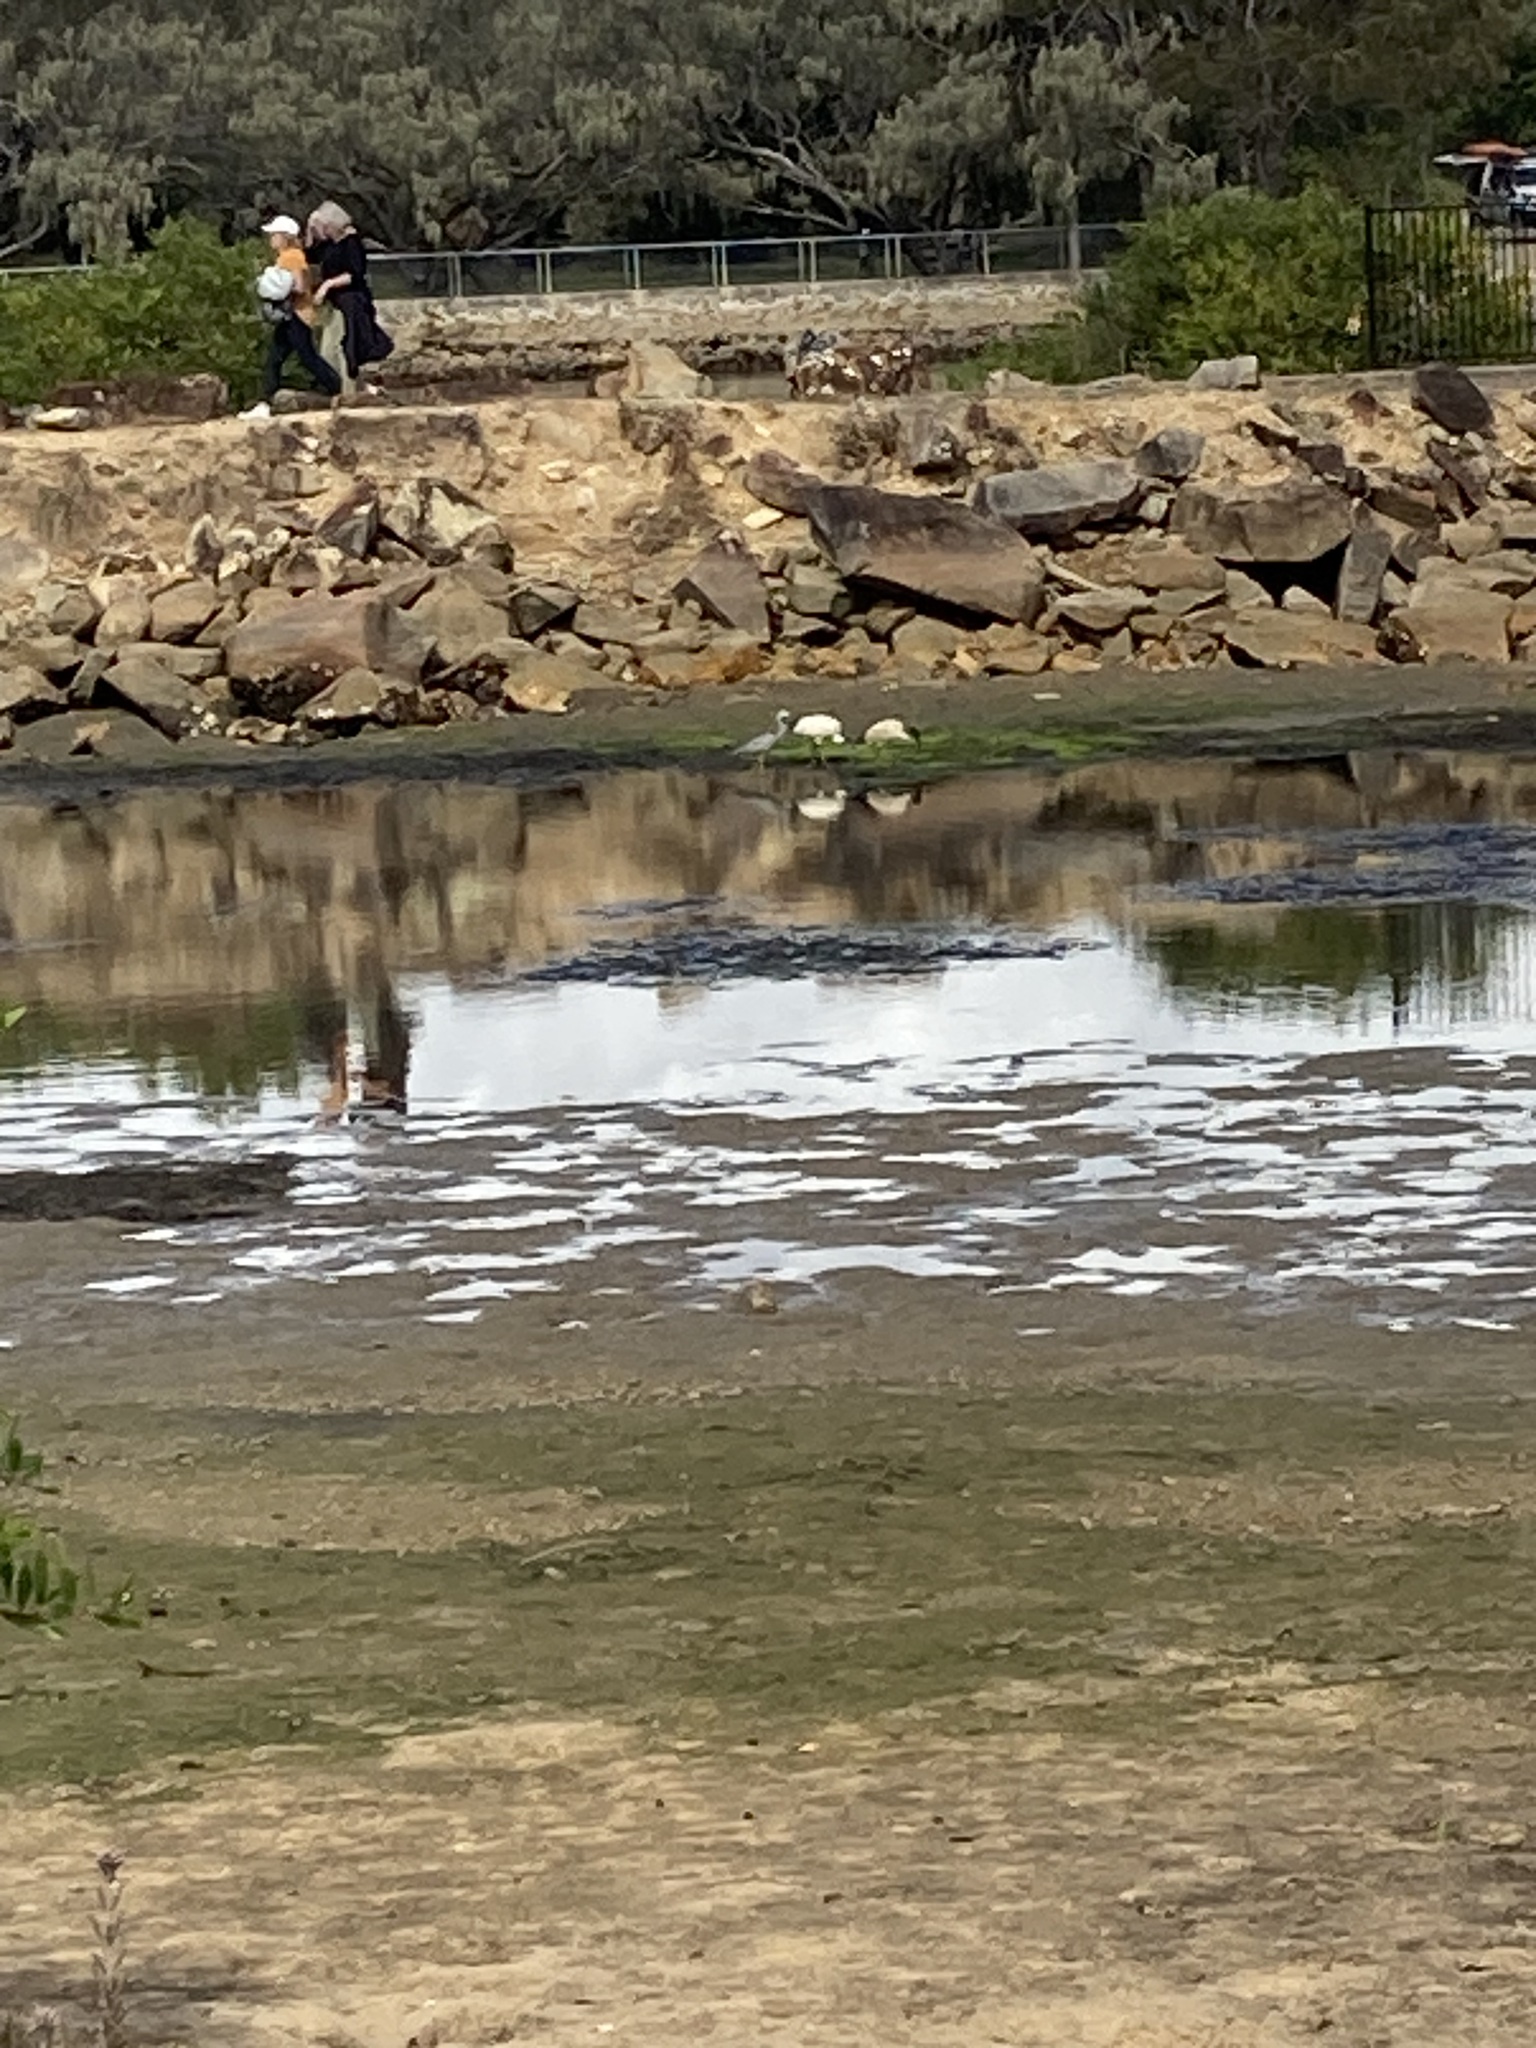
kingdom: Animalia
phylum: Chordata
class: Aves
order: Pelecaniformes
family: Threskiornithidae
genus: Threskiornis
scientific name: Threskiornis molucca
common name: Australian white ibis
